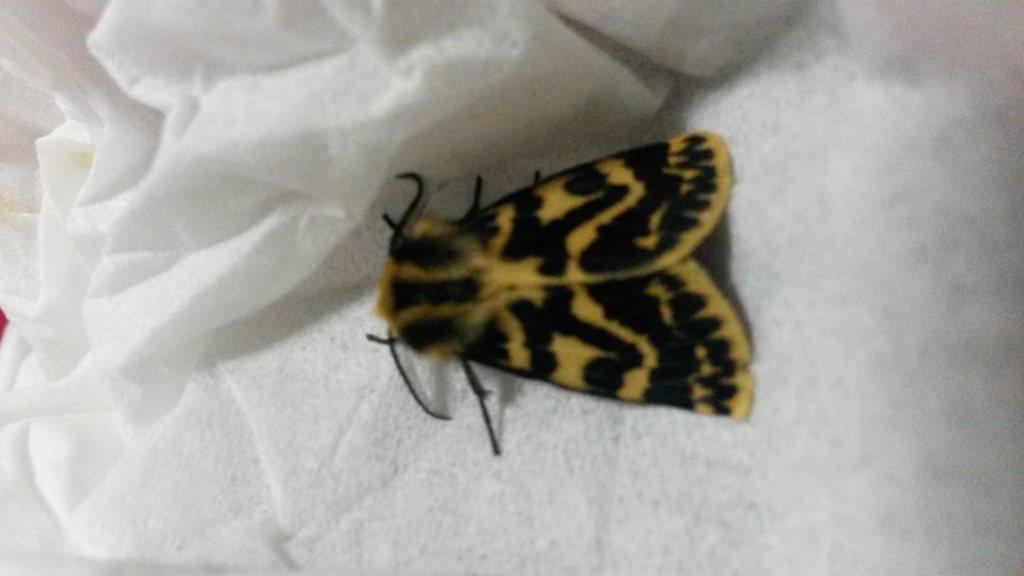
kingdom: Animalia
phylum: Arthropoda
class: Insecta
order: Lepidoptera
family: Erebidae
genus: Ardices
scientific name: Ardices curvata
